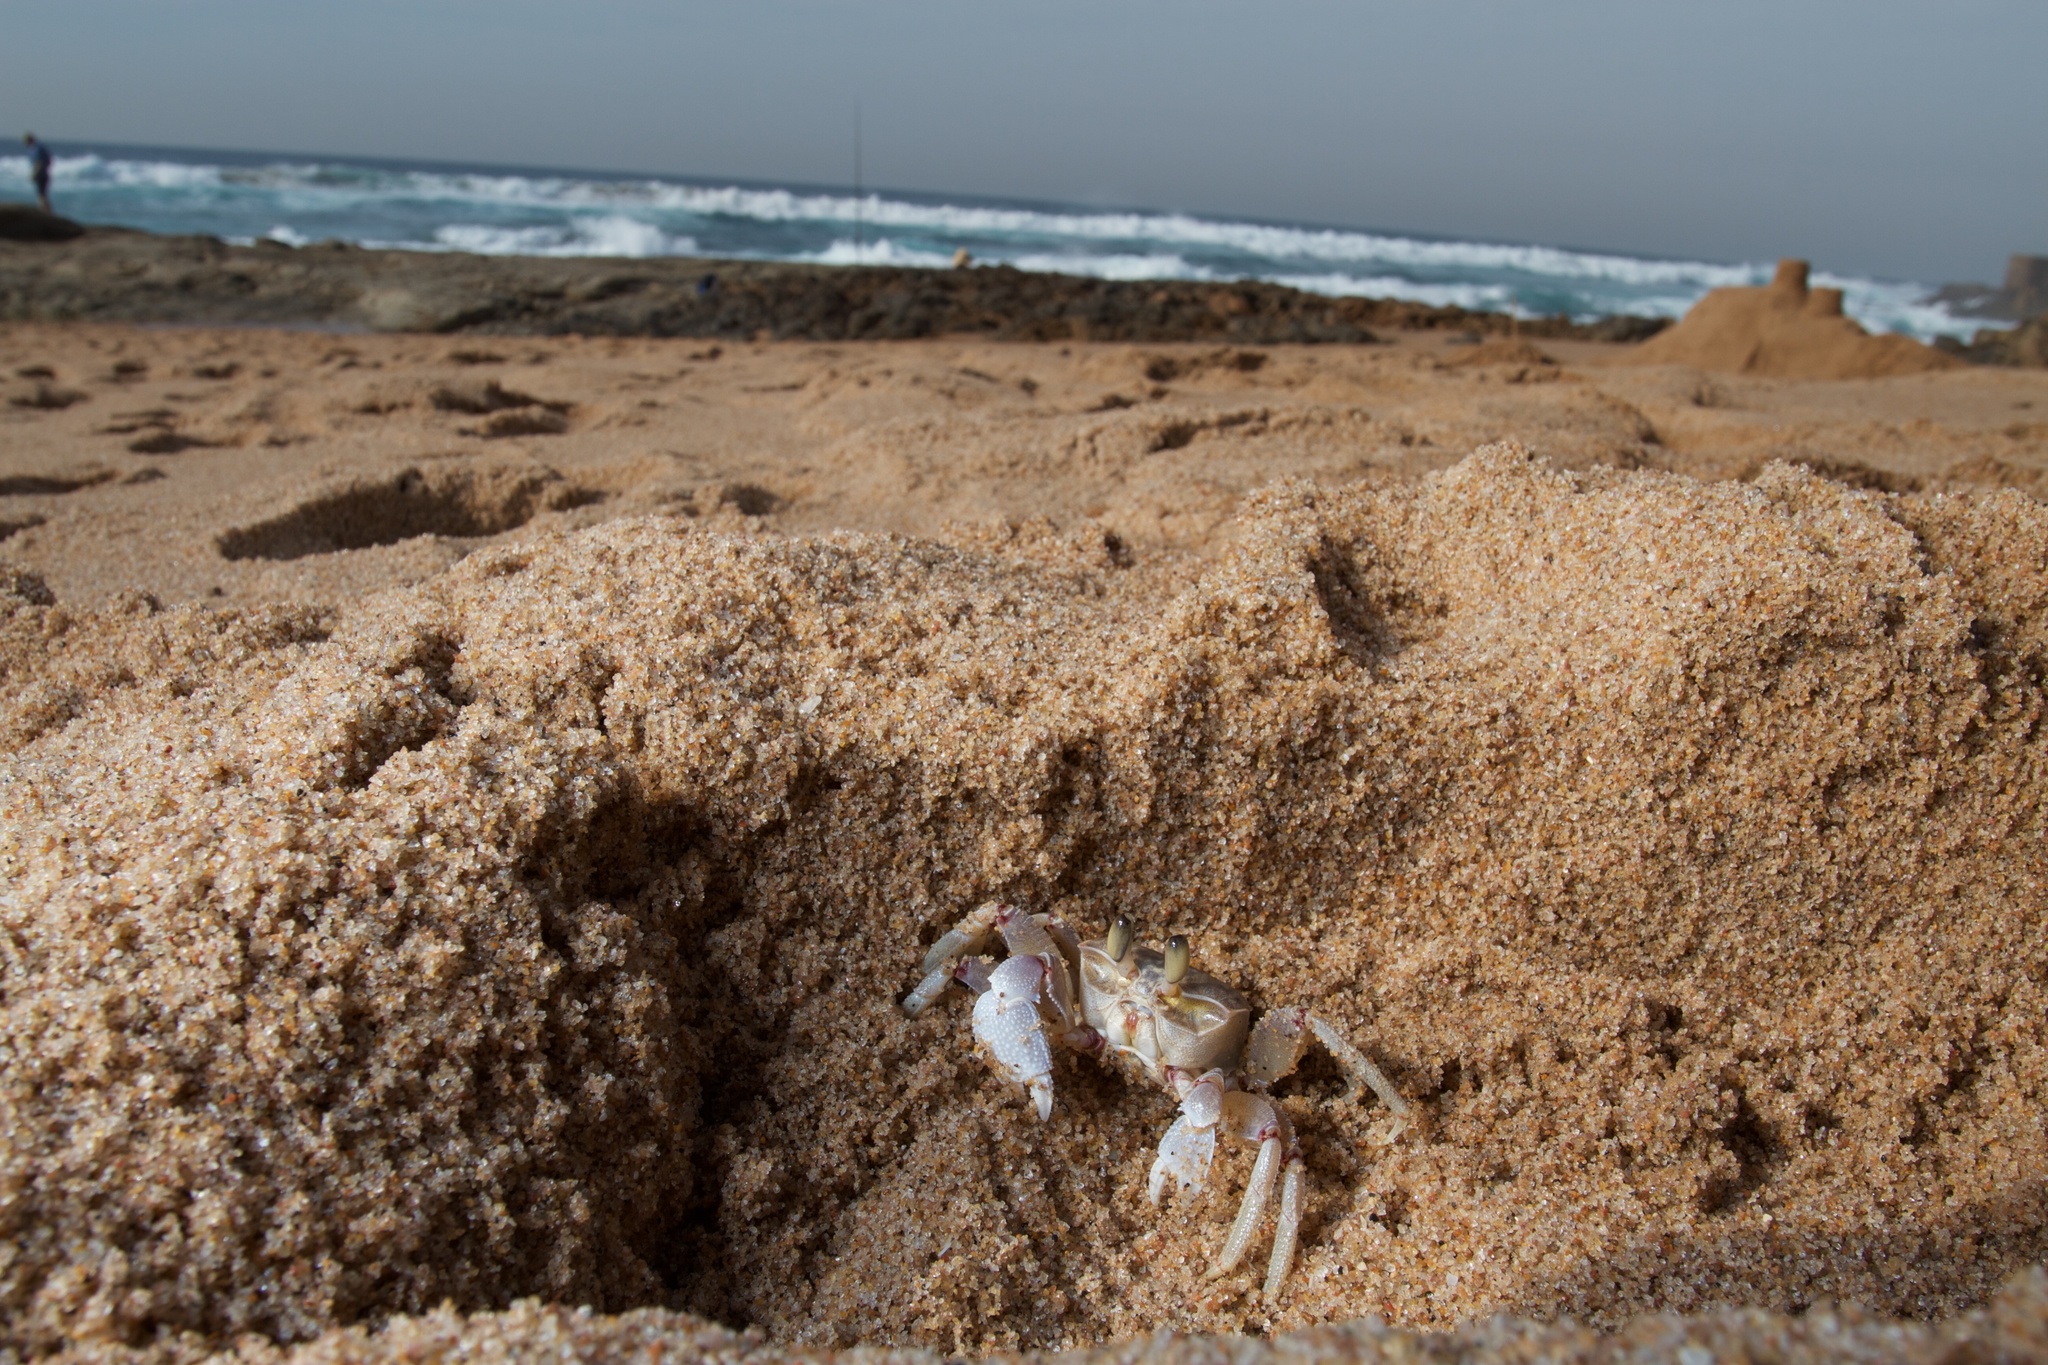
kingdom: Animalia
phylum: Arthropoda
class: Malacostraca
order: Decapoda
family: Ocypodidae
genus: Ocypode
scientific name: Ocypode ryderi
